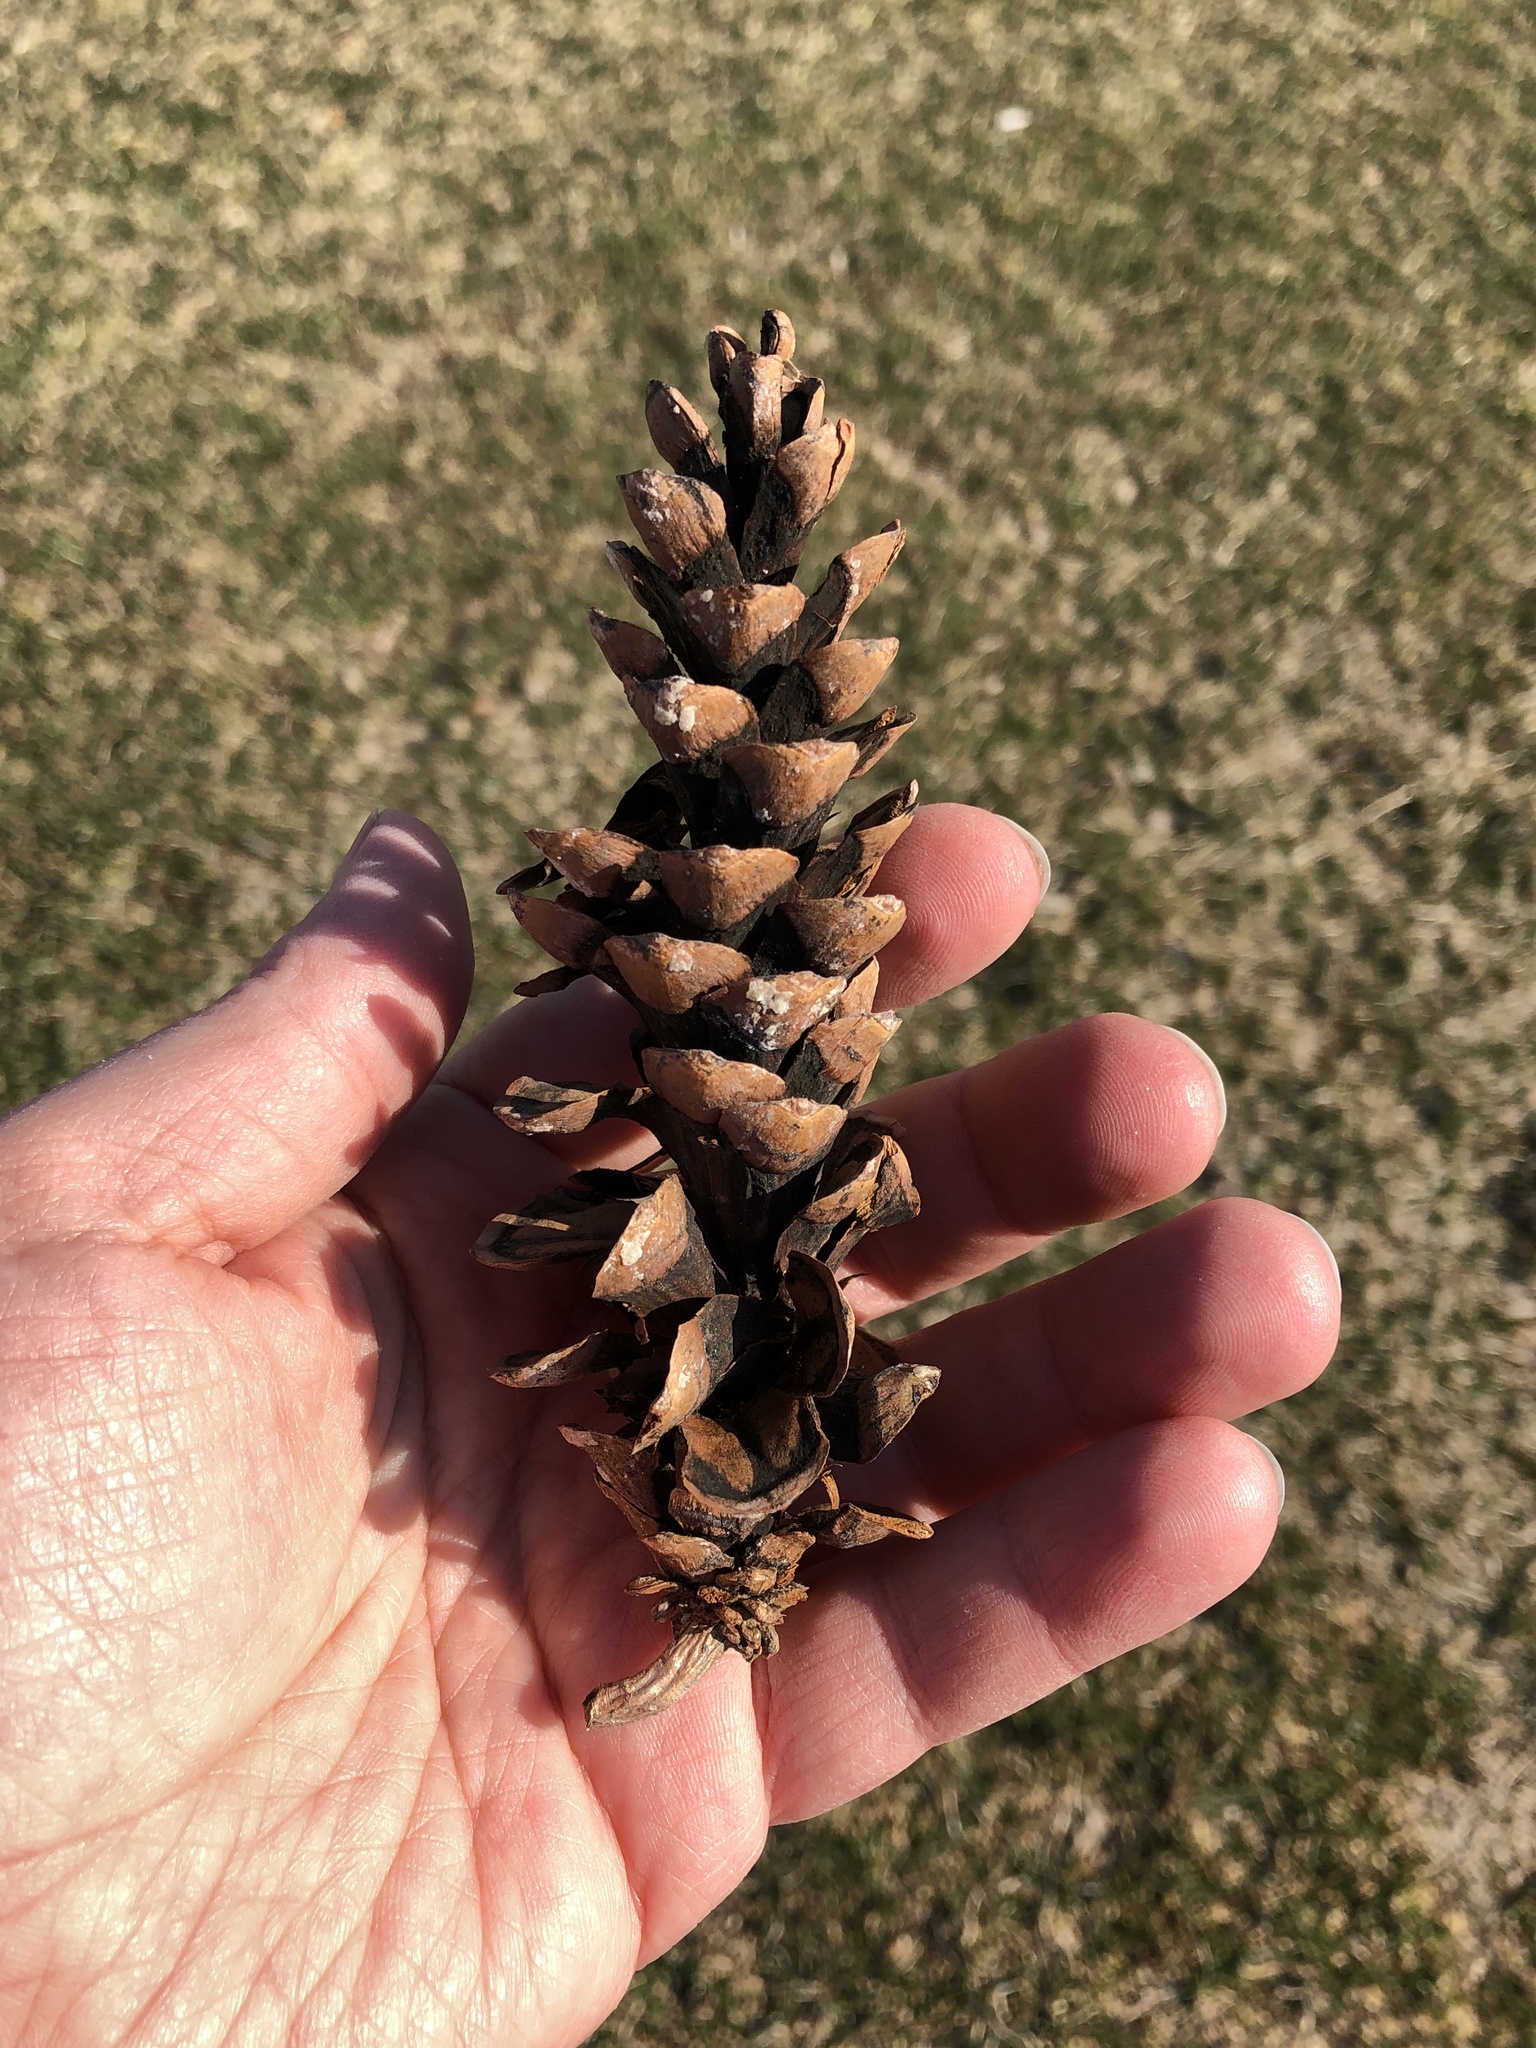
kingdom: Plantae
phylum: Tracheophyta
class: Pinopsida
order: Pinales
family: Pinaceae
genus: Pinus
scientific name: Pinus strobus
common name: Weymouth pine
